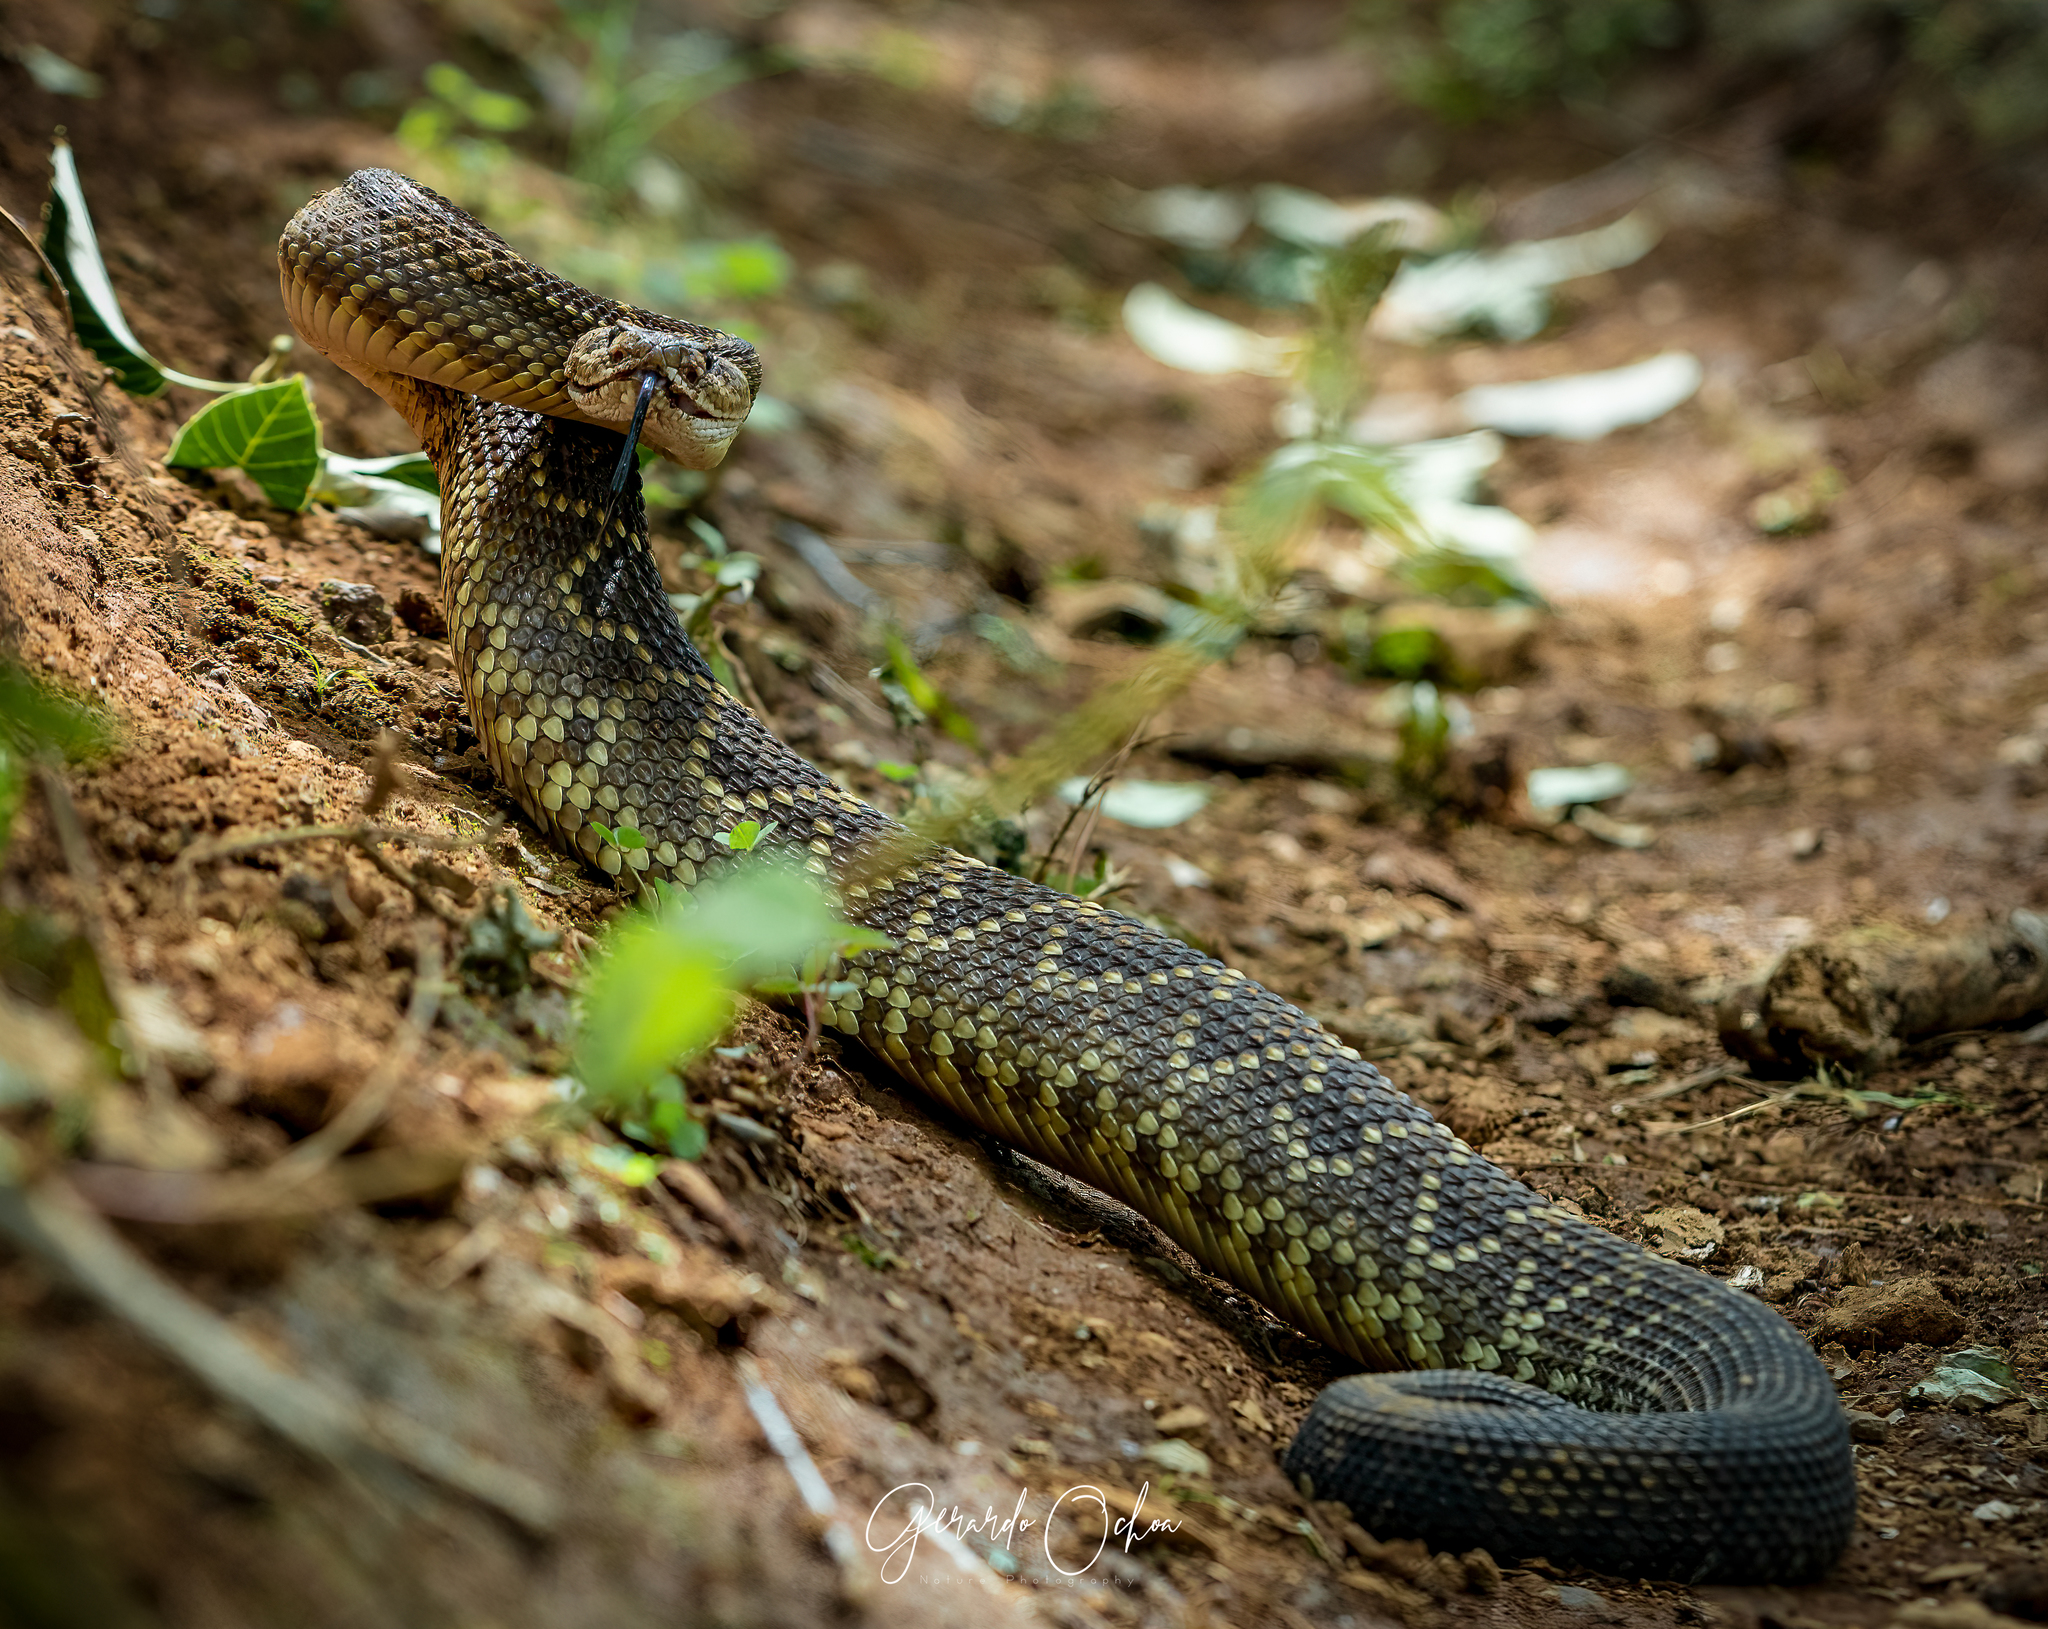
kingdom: Animalia
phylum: Chordata
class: Squamata
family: Viperidae
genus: Crotalus
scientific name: Crotalus molossus
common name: Black tailed rattlesnake
